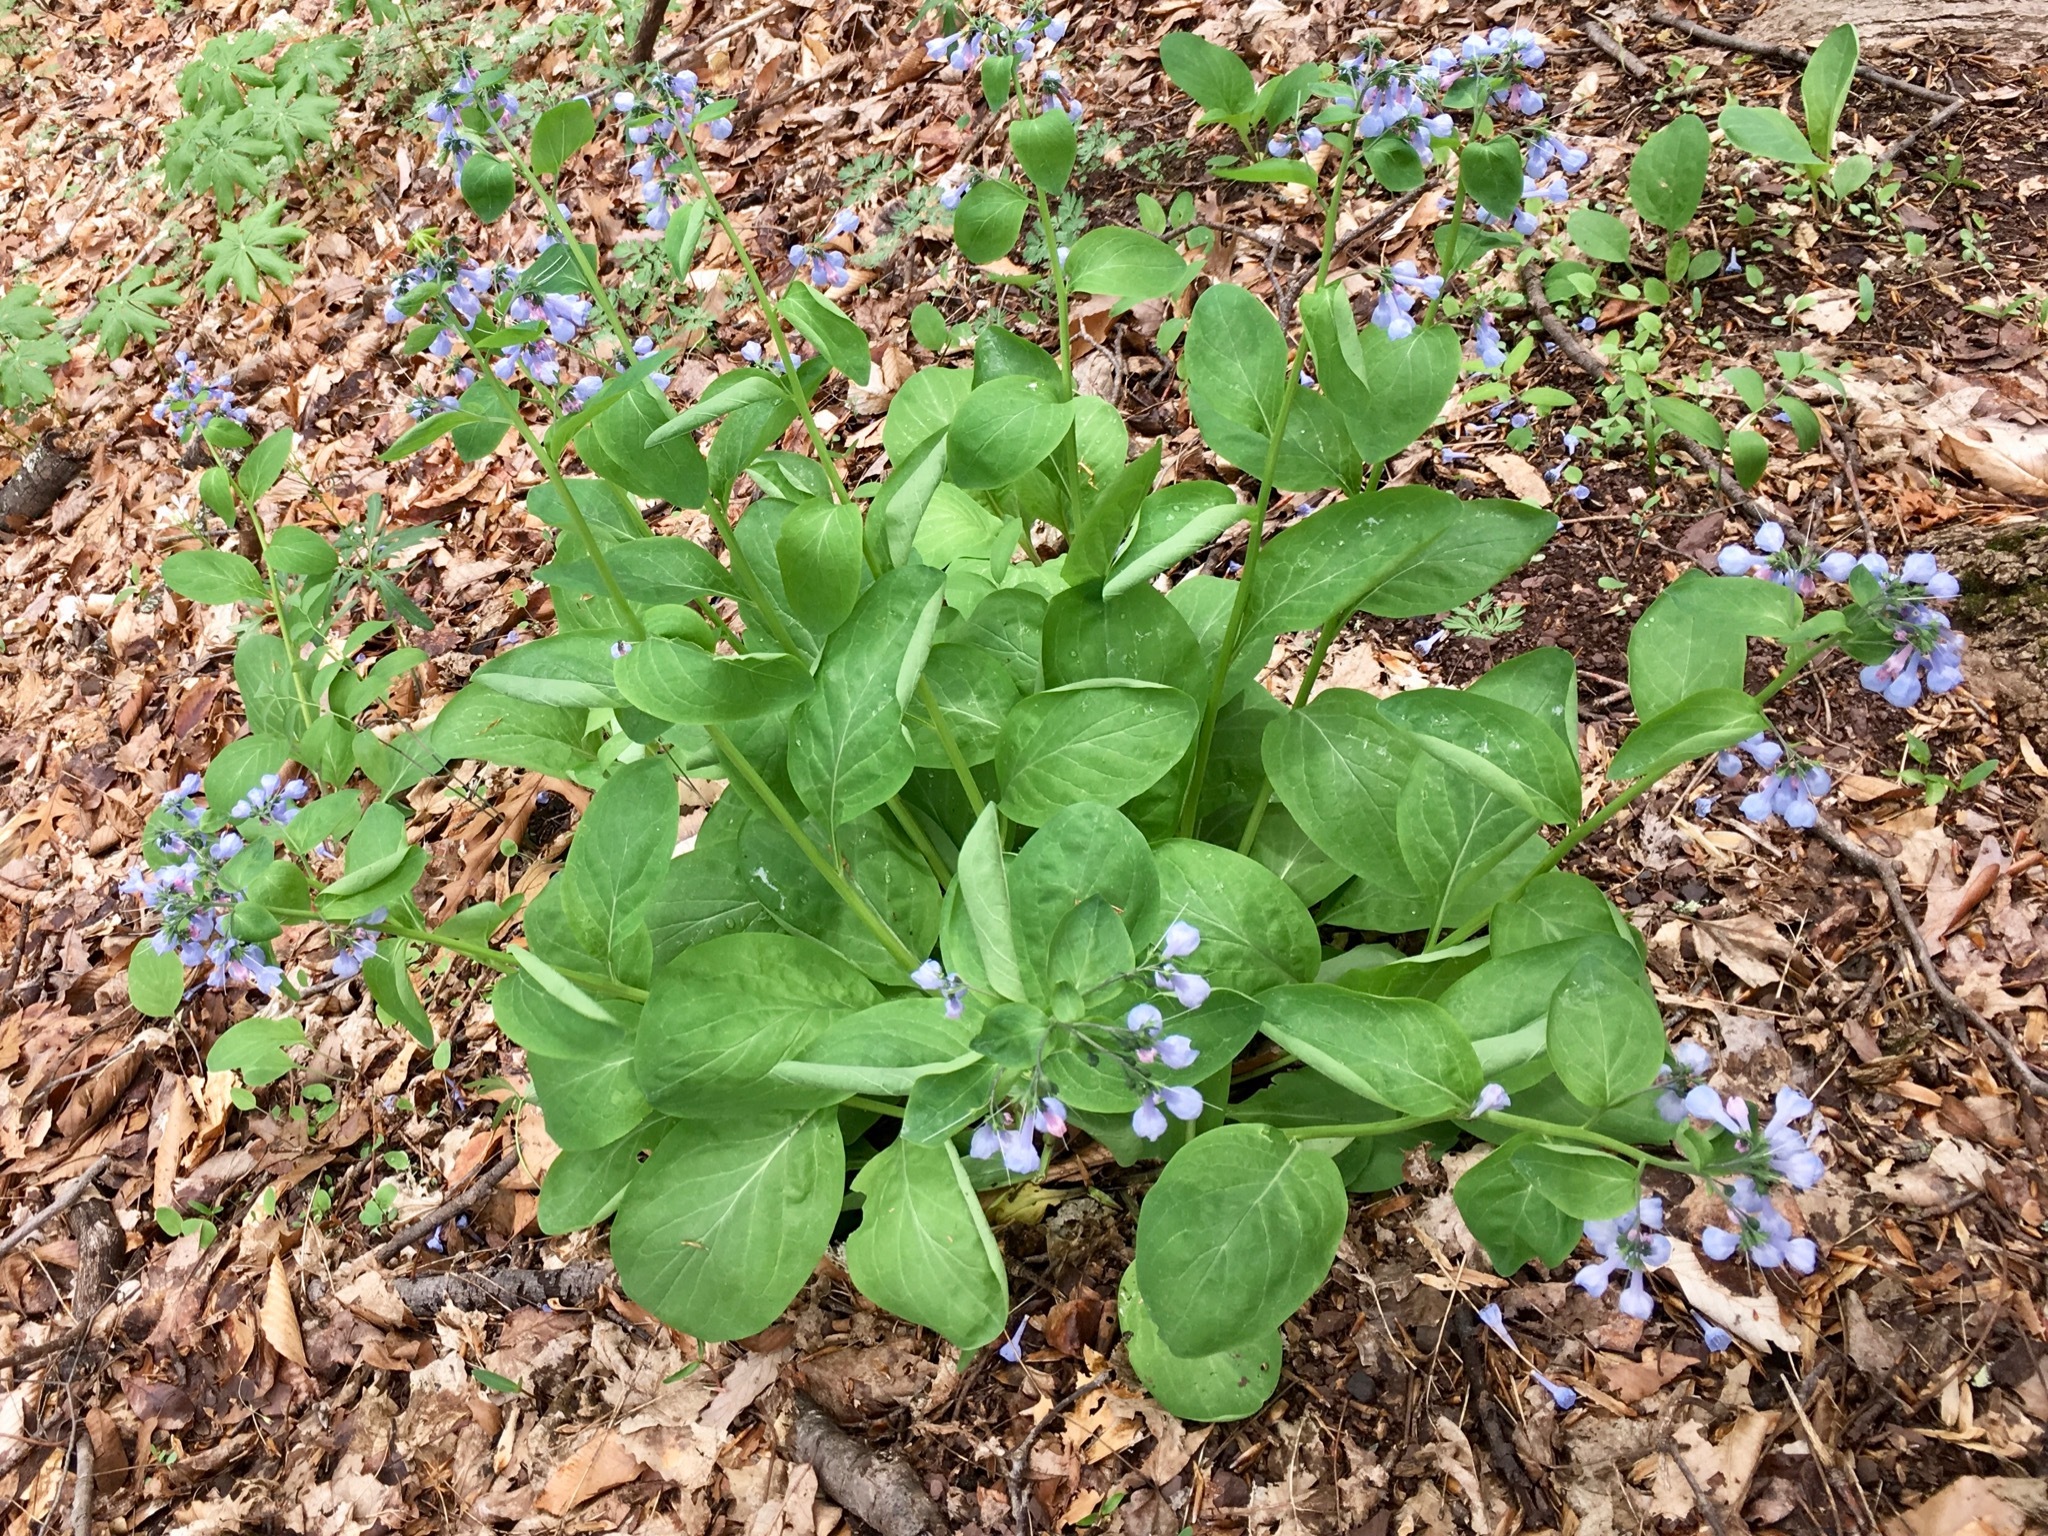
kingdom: Plantae
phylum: Tracheophyta
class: Magnoliopsida
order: Boraginales
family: Boraginaceae
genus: Mertensia
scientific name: Mertensia virginica
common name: Virginia bluebells
